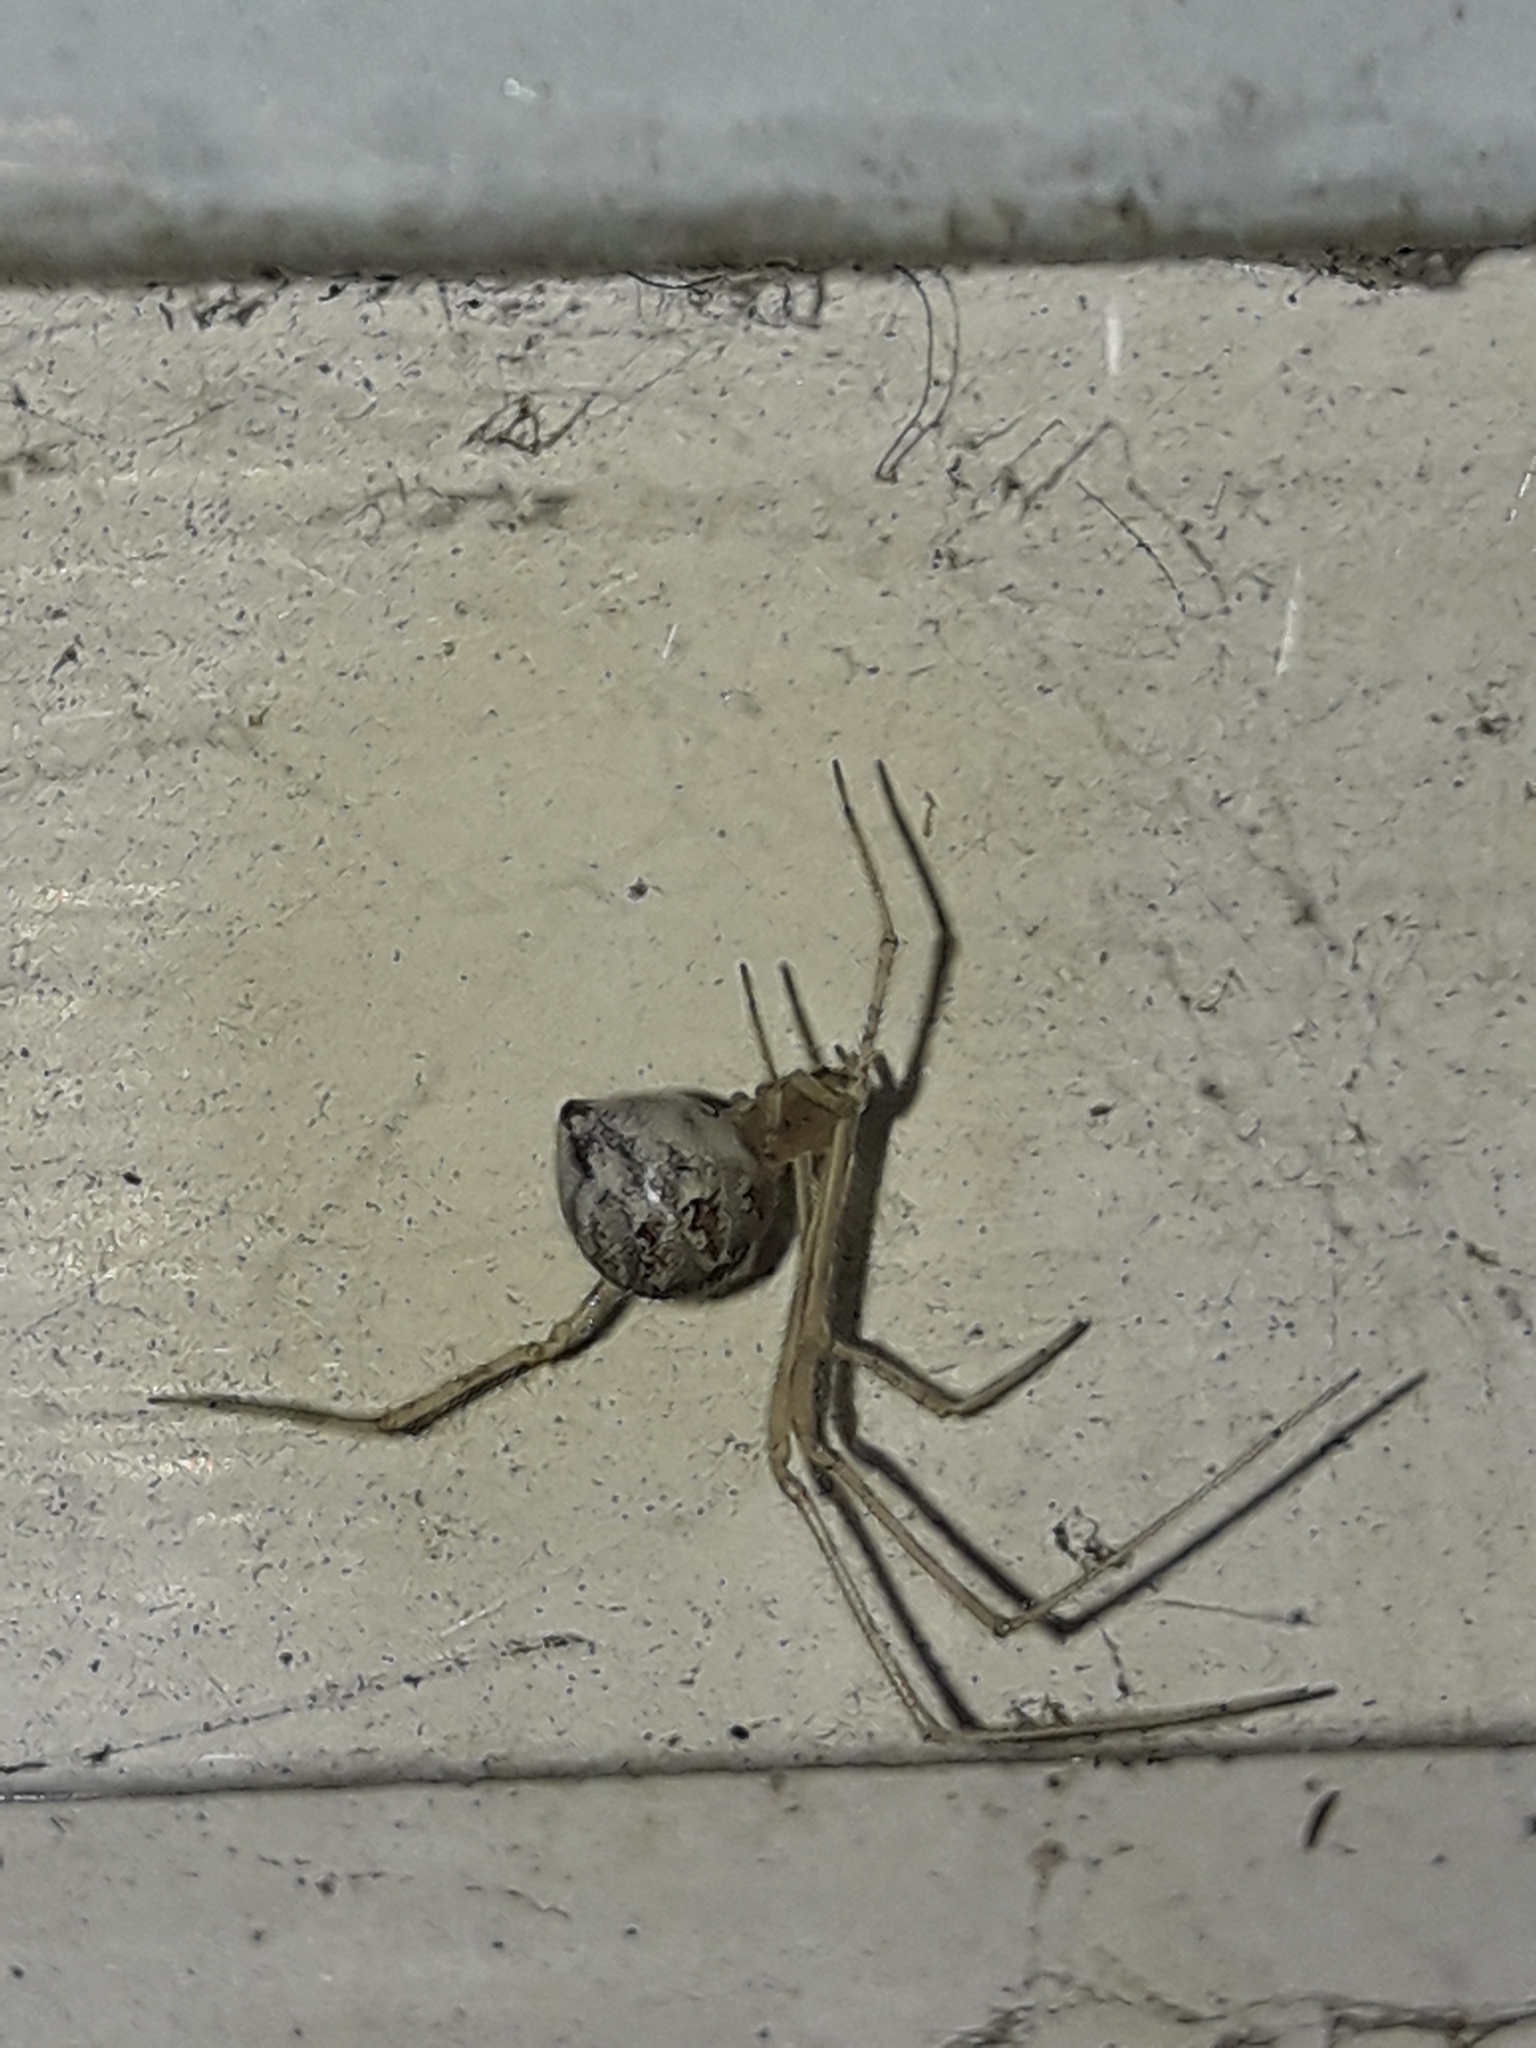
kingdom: Animalia
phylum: Arthropoda
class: Arachnida
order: Araneae
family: Theridiidae
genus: Cryptachaea
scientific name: Cryptachaea gigantipes
